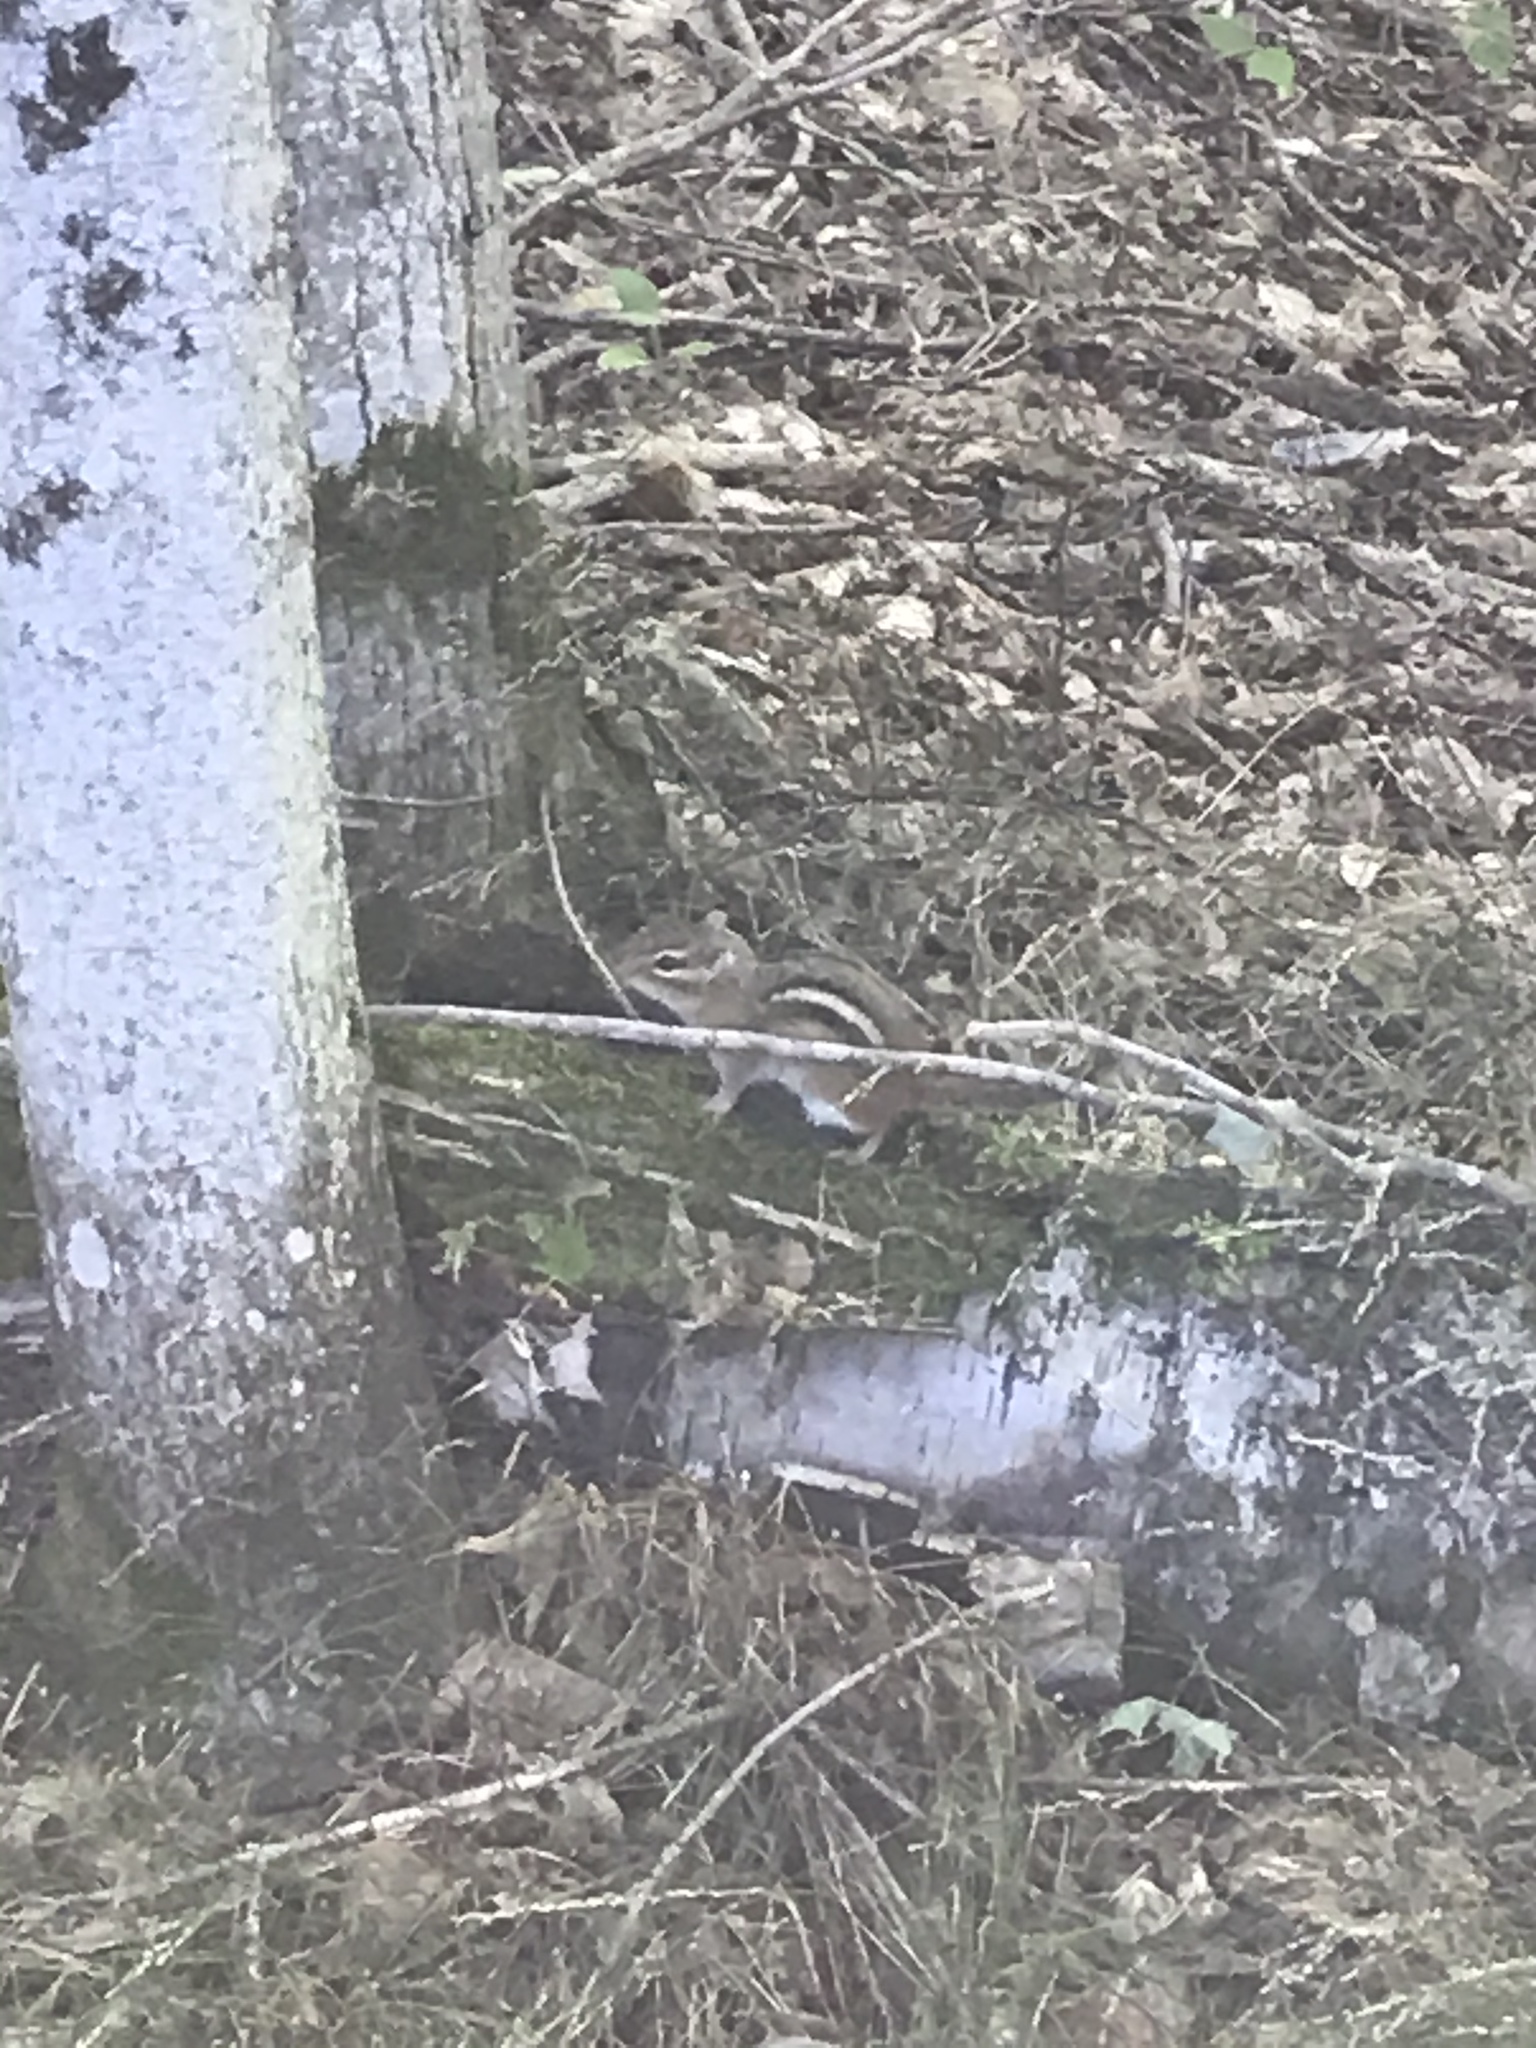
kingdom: Animalia
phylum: Chordata
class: Mammalia
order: Rodentia
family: Sciuridae
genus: Tamias
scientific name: Tamias striatus
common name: Eastern chipmunk
